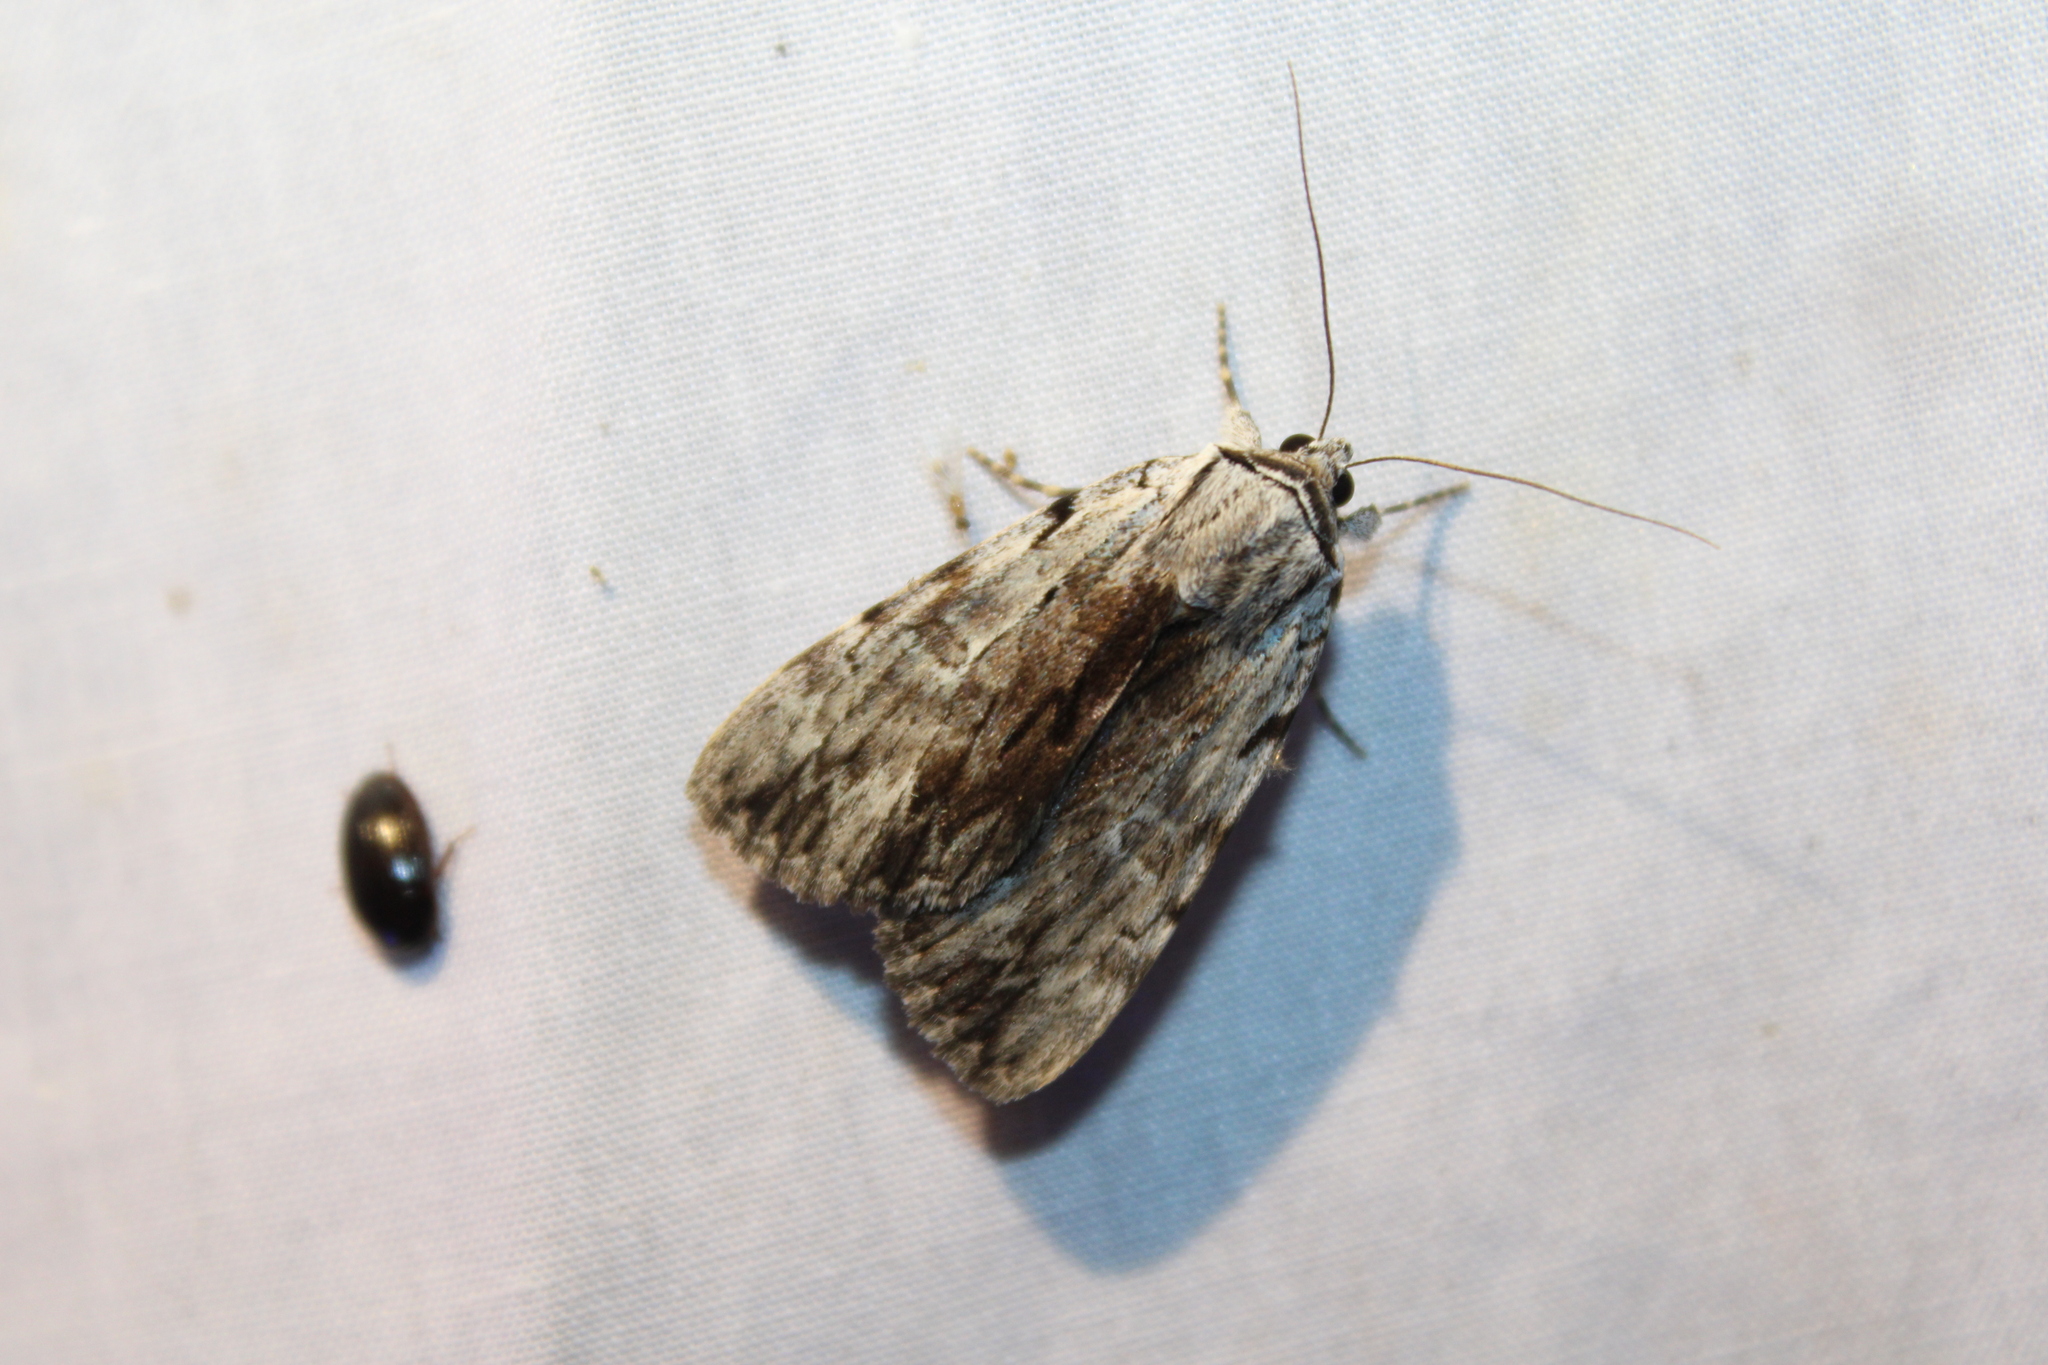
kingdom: Animalia
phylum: Arthropoda
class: Insecta
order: Lepidoptera
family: Erebidae
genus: Catocala
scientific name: Catocala gracilis
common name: Graceful underwing
